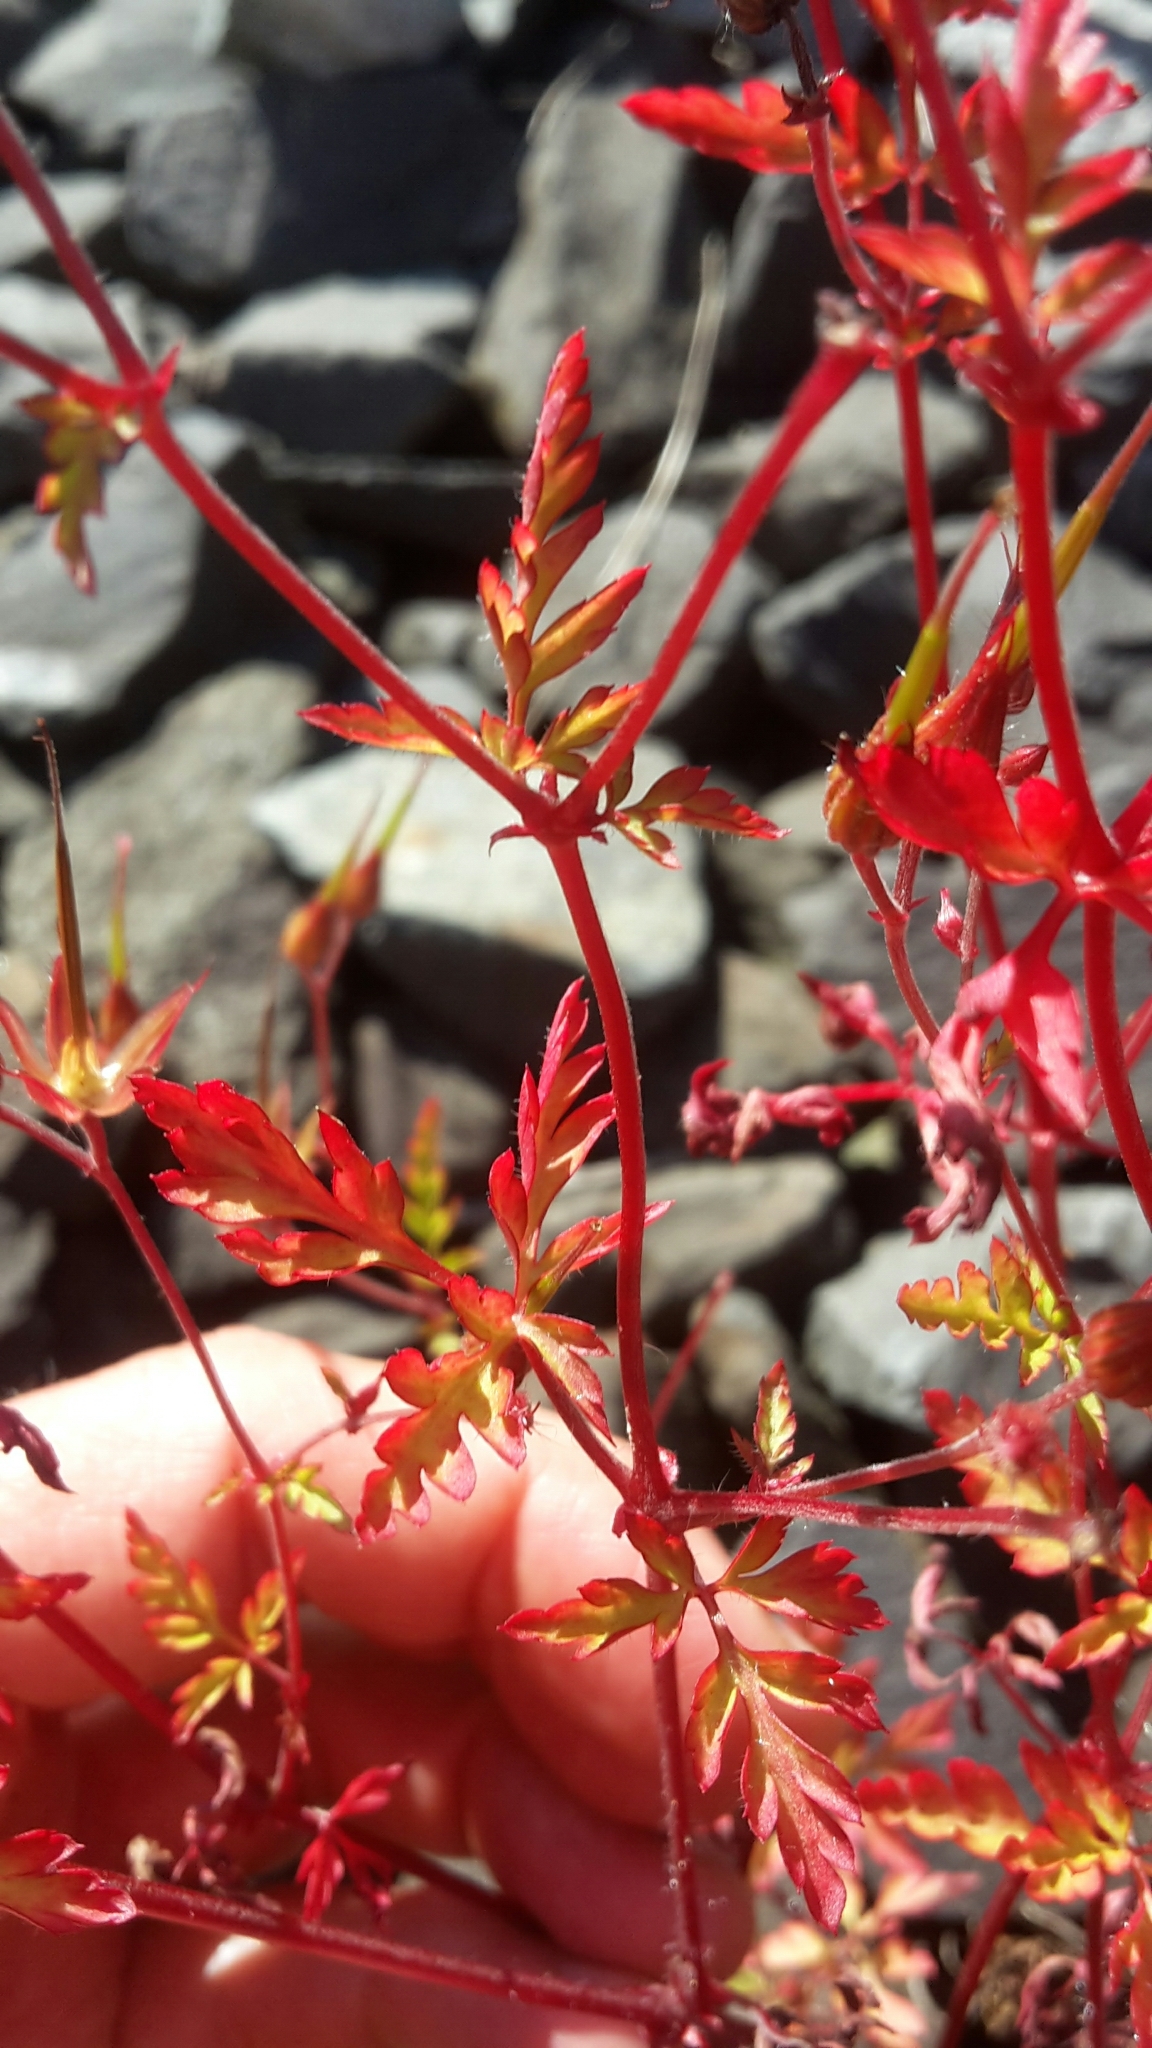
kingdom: Plantae
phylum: Tracheophyta
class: Magnoliopsida
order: Geraniales
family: Geraniaceae
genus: Geranium
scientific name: Geranium robertianum
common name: Herb-robert
